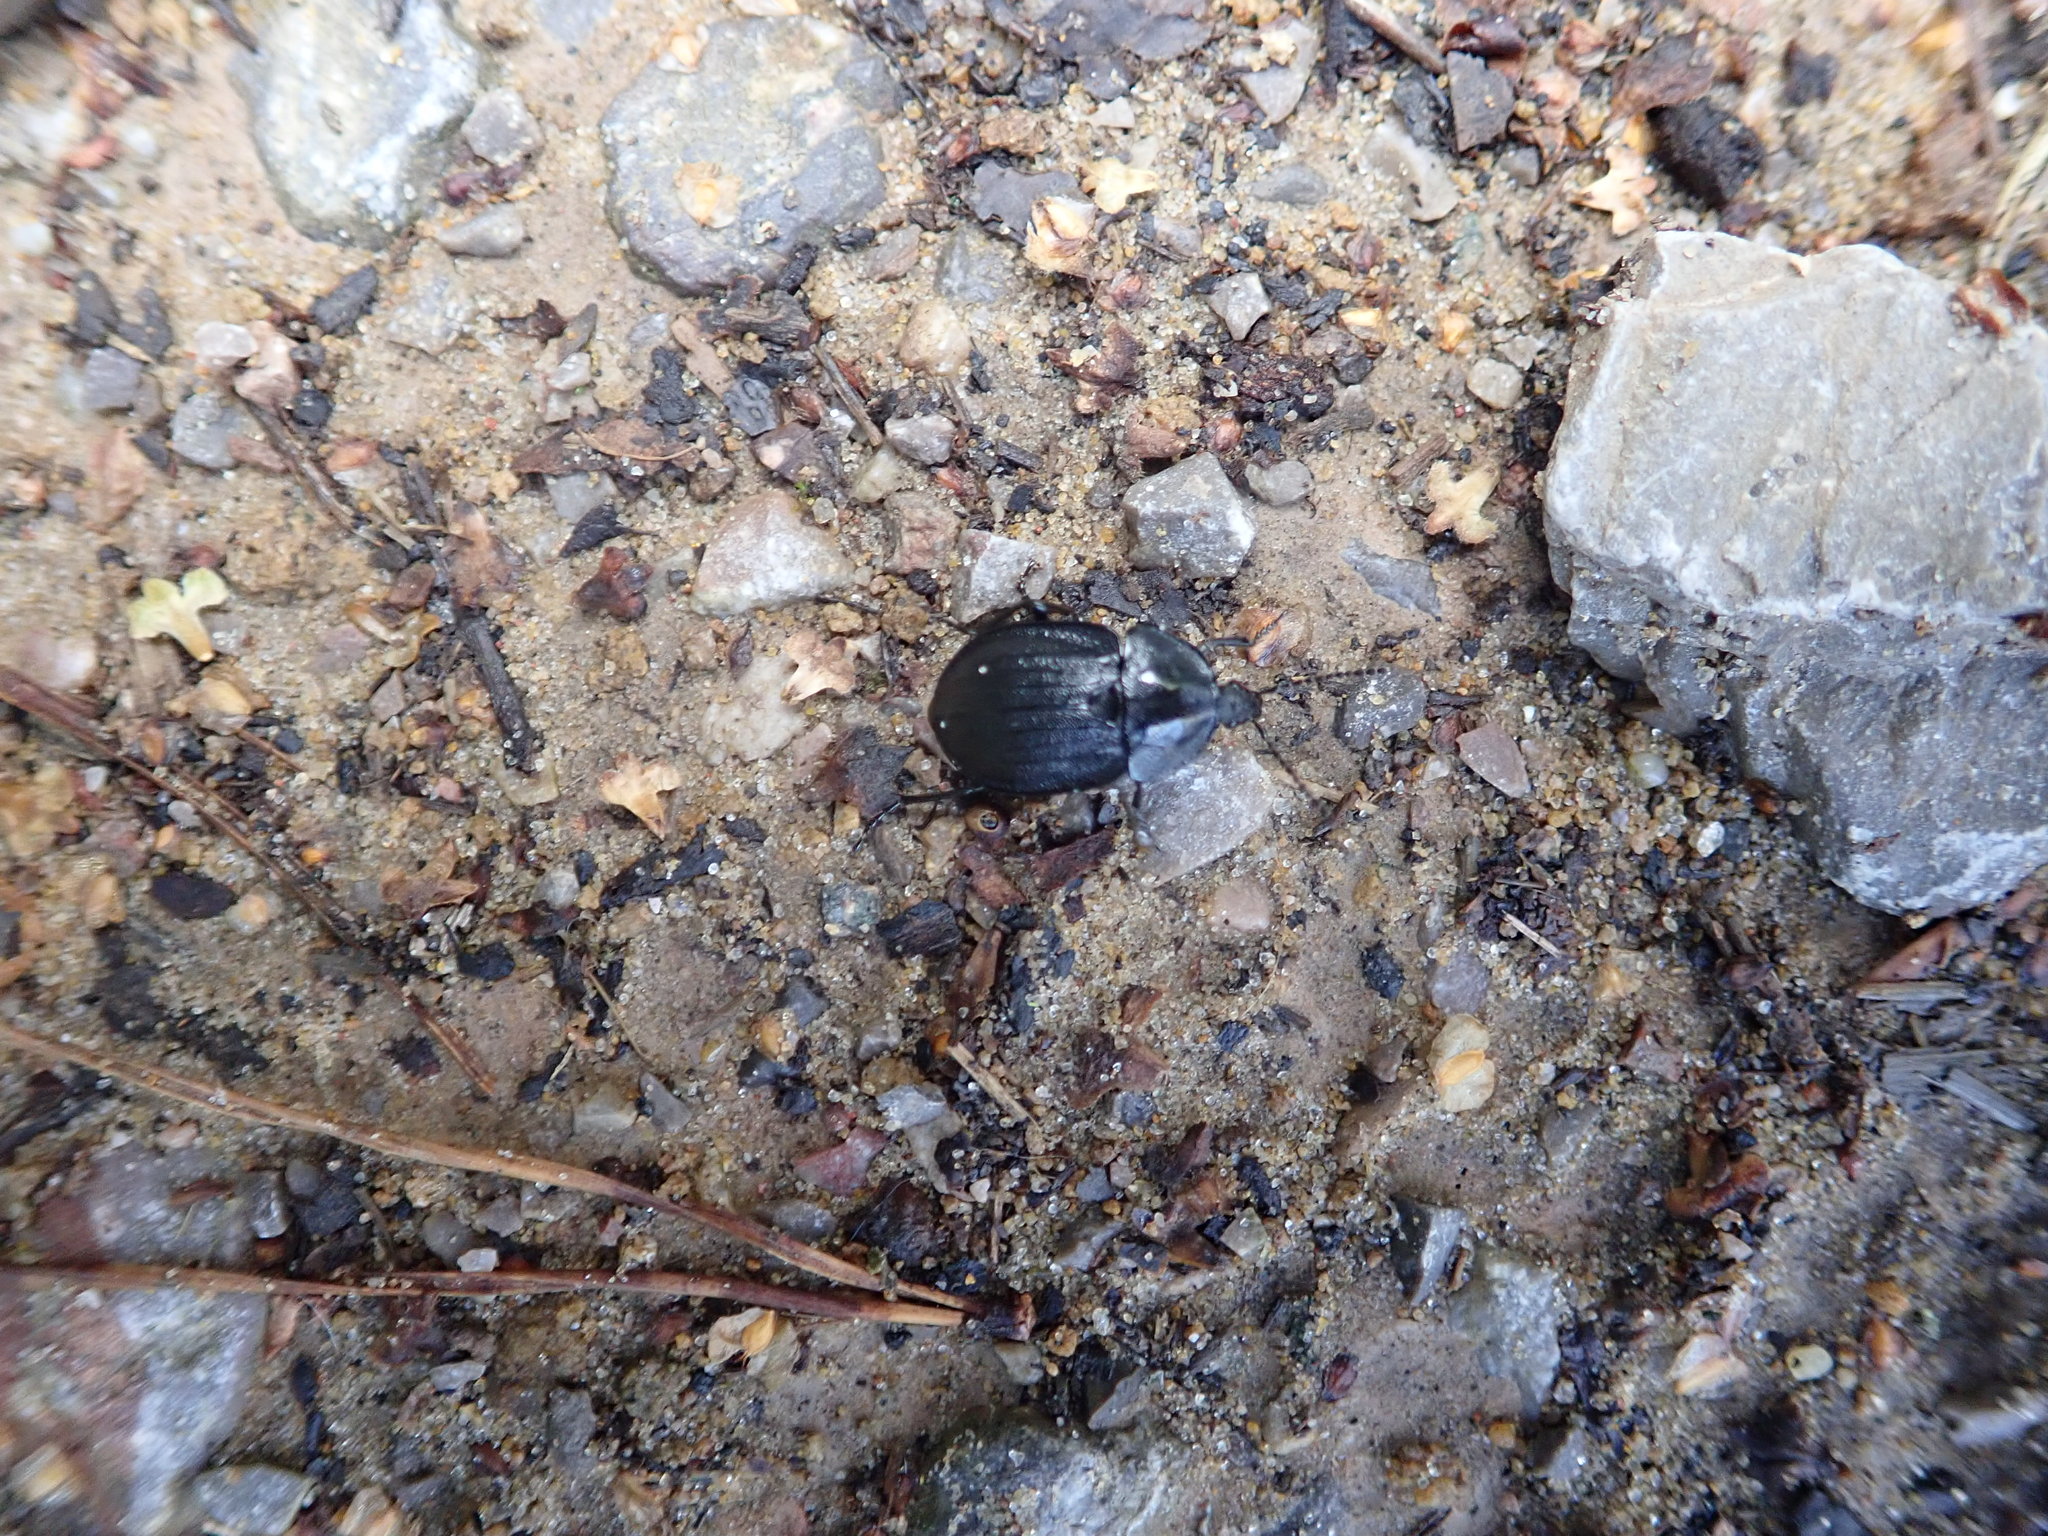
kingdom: Animalia
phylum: Arthropoda
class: Insecta
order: Coleoptera
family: Staphylinidae
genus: Silpha
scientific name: Silpha atrata
